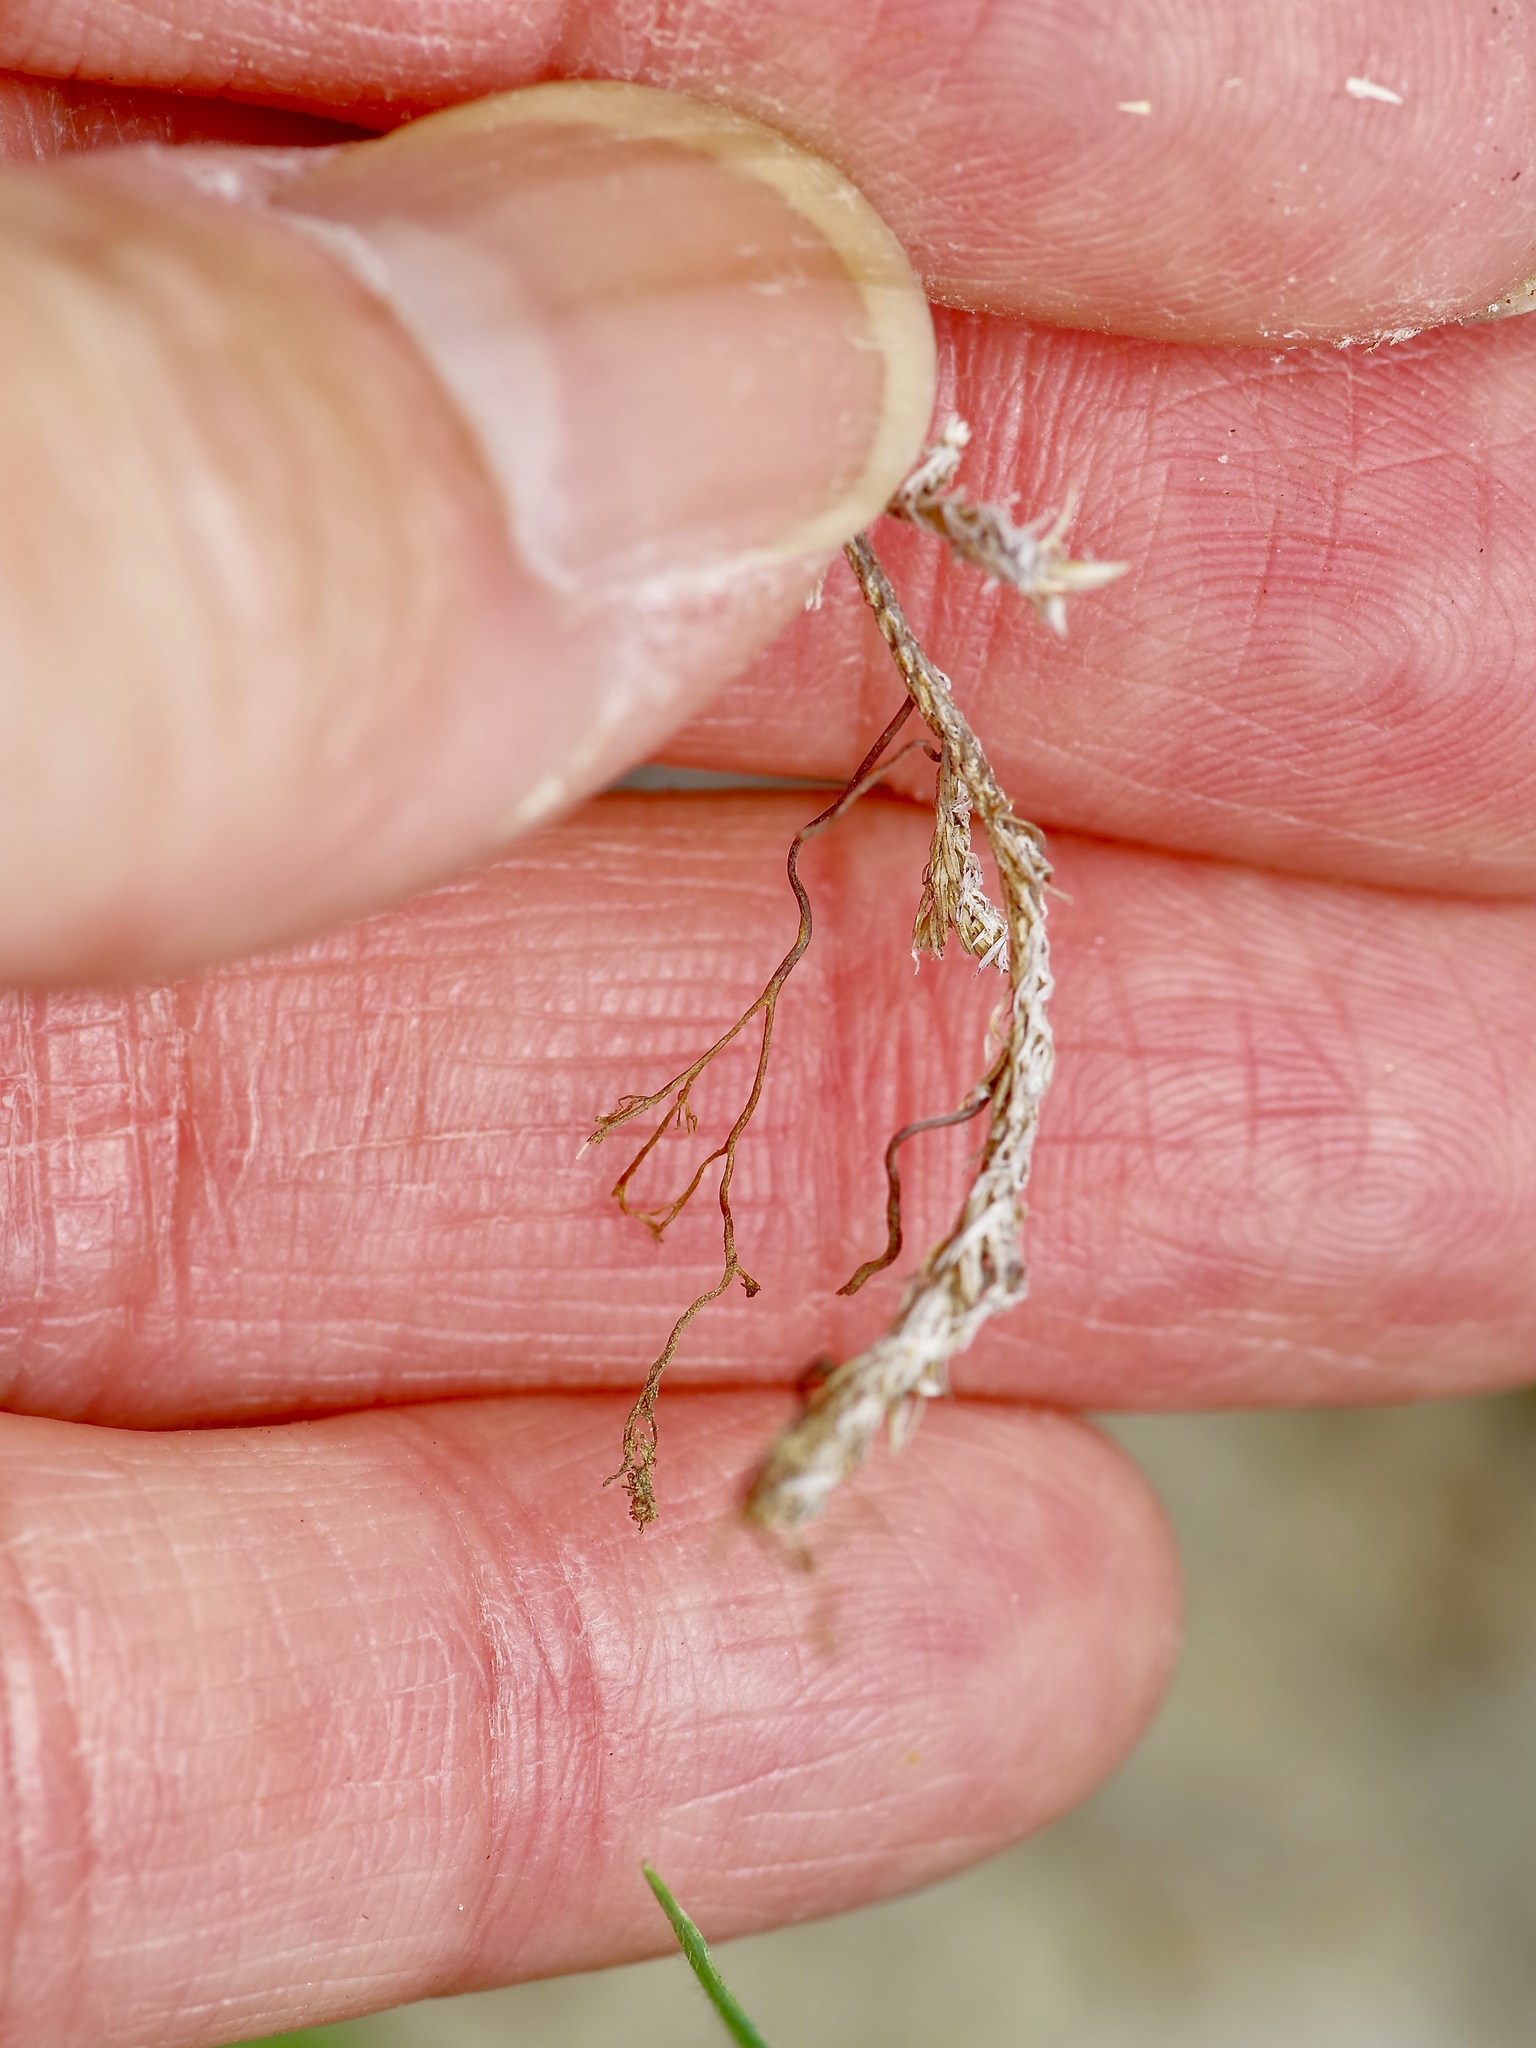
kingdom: Plantae
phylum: Tracheophyta
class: Lycopodiopsida
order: Selaginellales
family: Selaginellaceae
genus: Selaginella
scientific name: Selaginella wrightii
